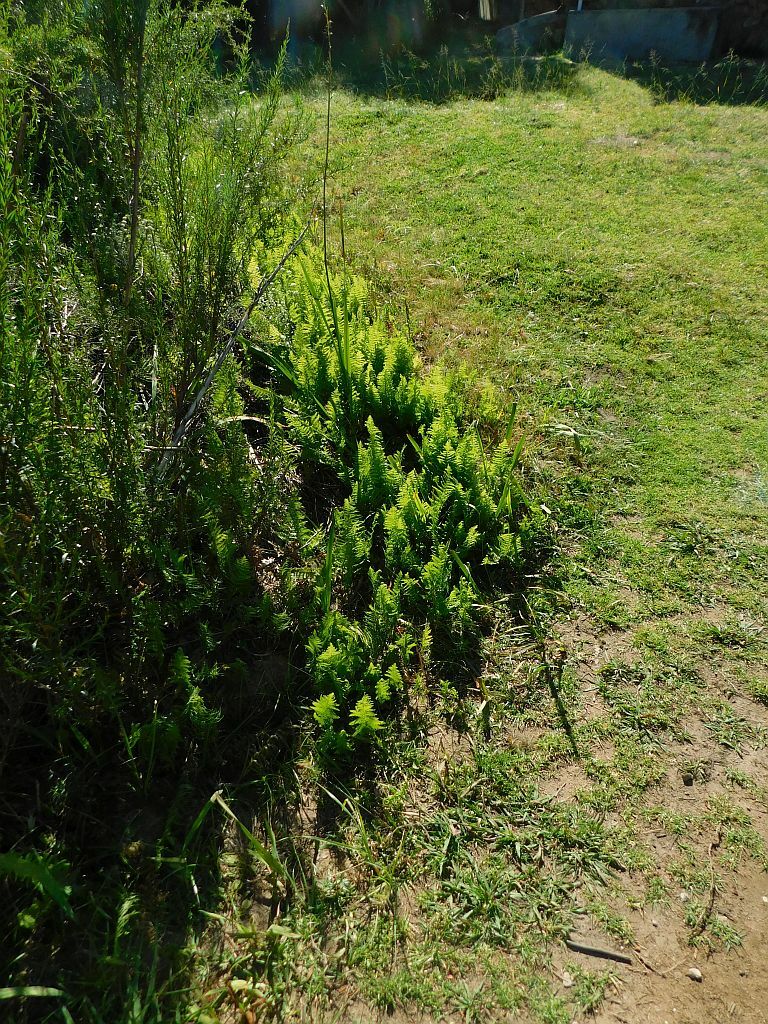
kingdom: Plantae
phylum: Tracheophyta
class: Polypodiopsida
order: Polypodiales
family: Thelypteridaceae
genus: Thelypteris
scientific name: Thelypteris confluens
